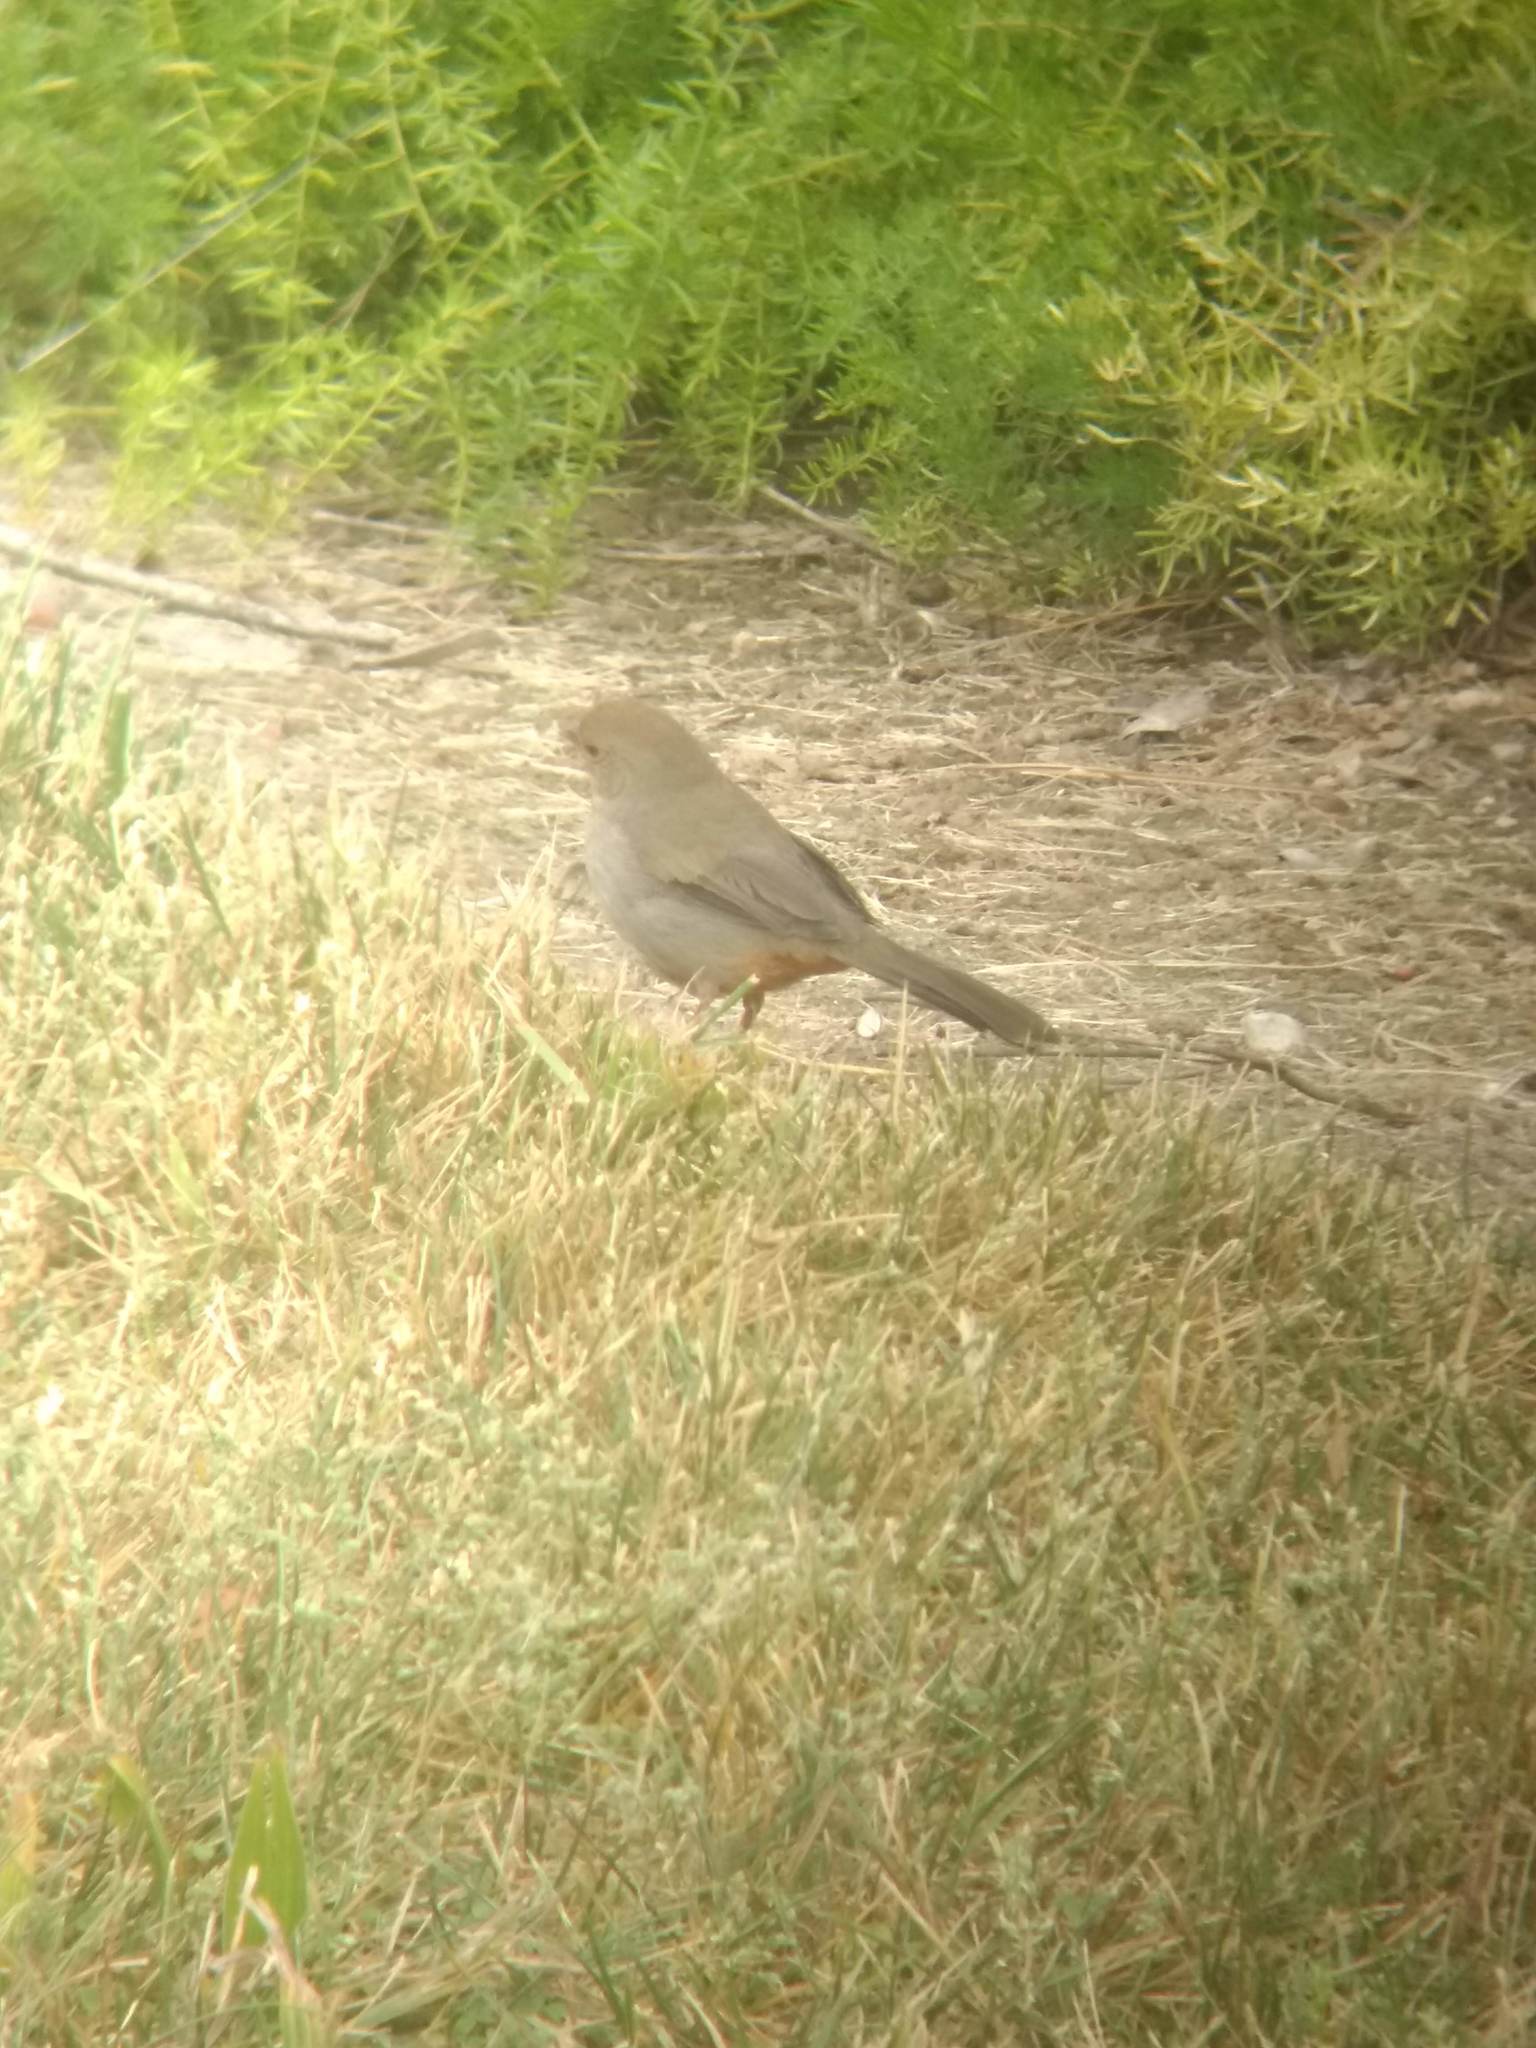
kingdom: Animalia
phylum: Chordata
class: Aves
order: Passeriformes
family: Passerellidae
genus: Melozone
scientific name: Melozone crissalis
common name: California towhee
